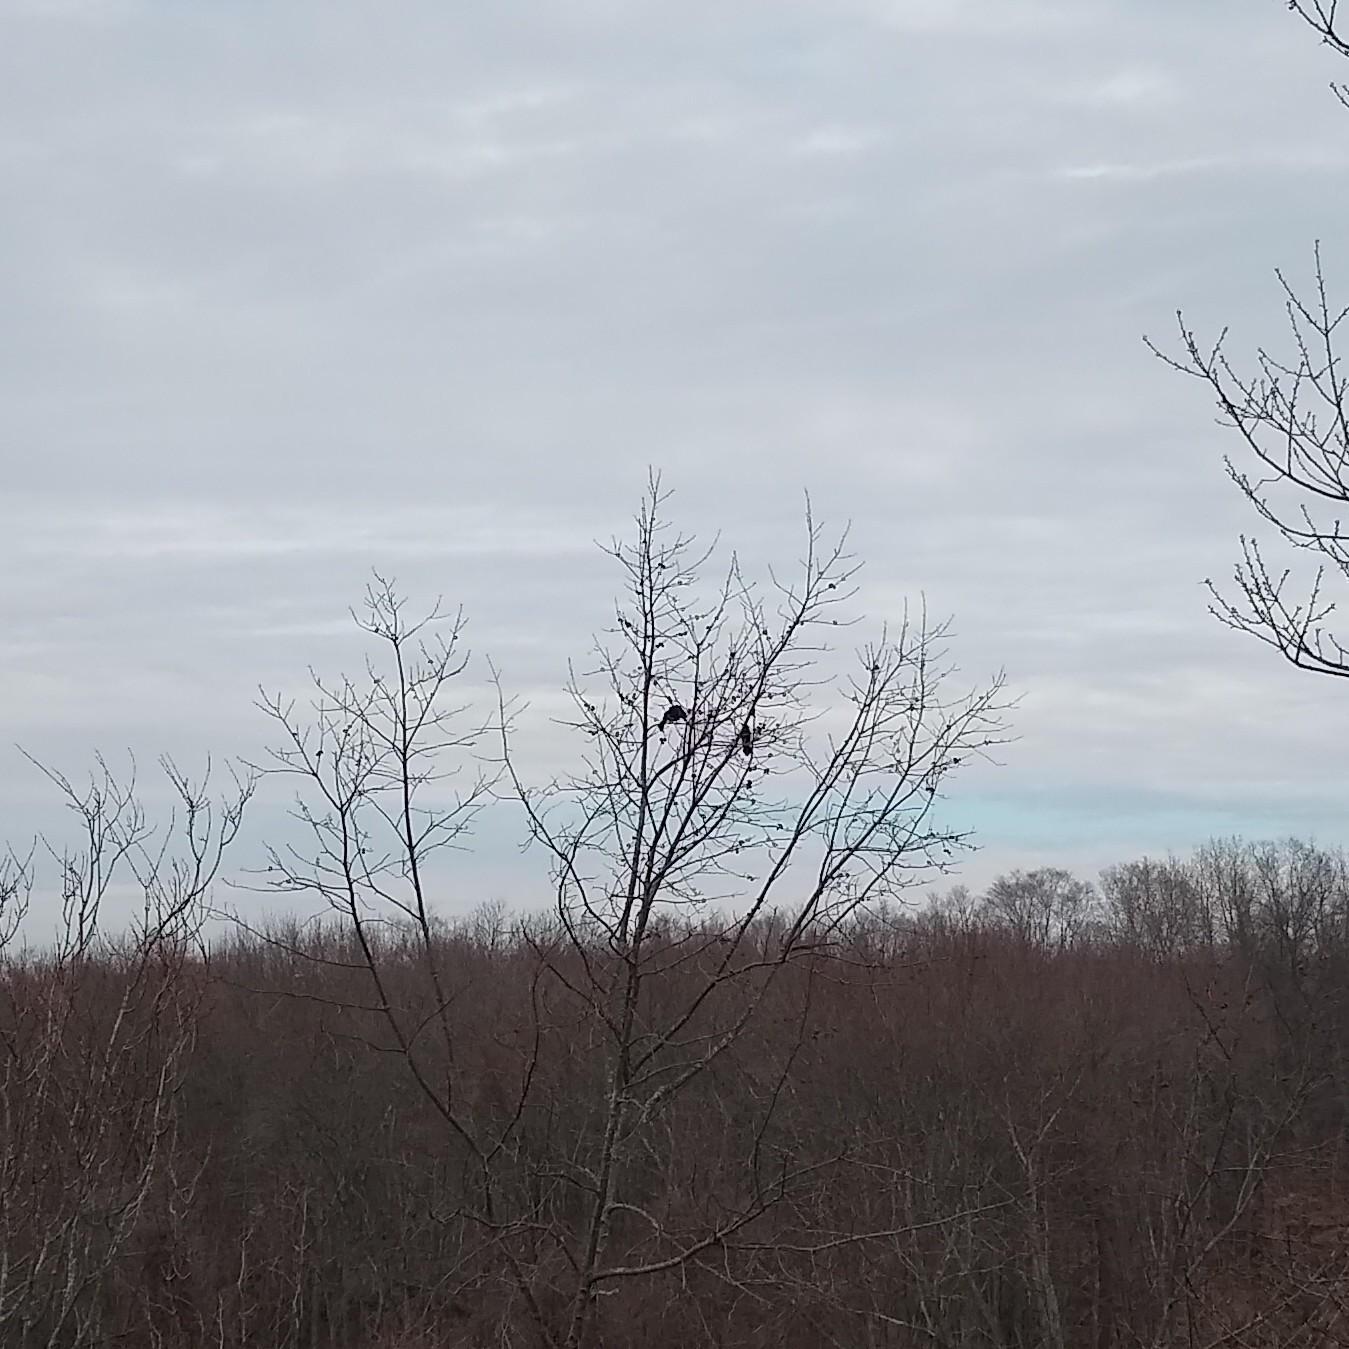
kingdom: Animalia
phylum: Chordata
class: Aves
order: Passeriformes
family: Icteridae
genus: Quiscalus
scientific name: Quiscalus quiscula
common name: Common grackle
